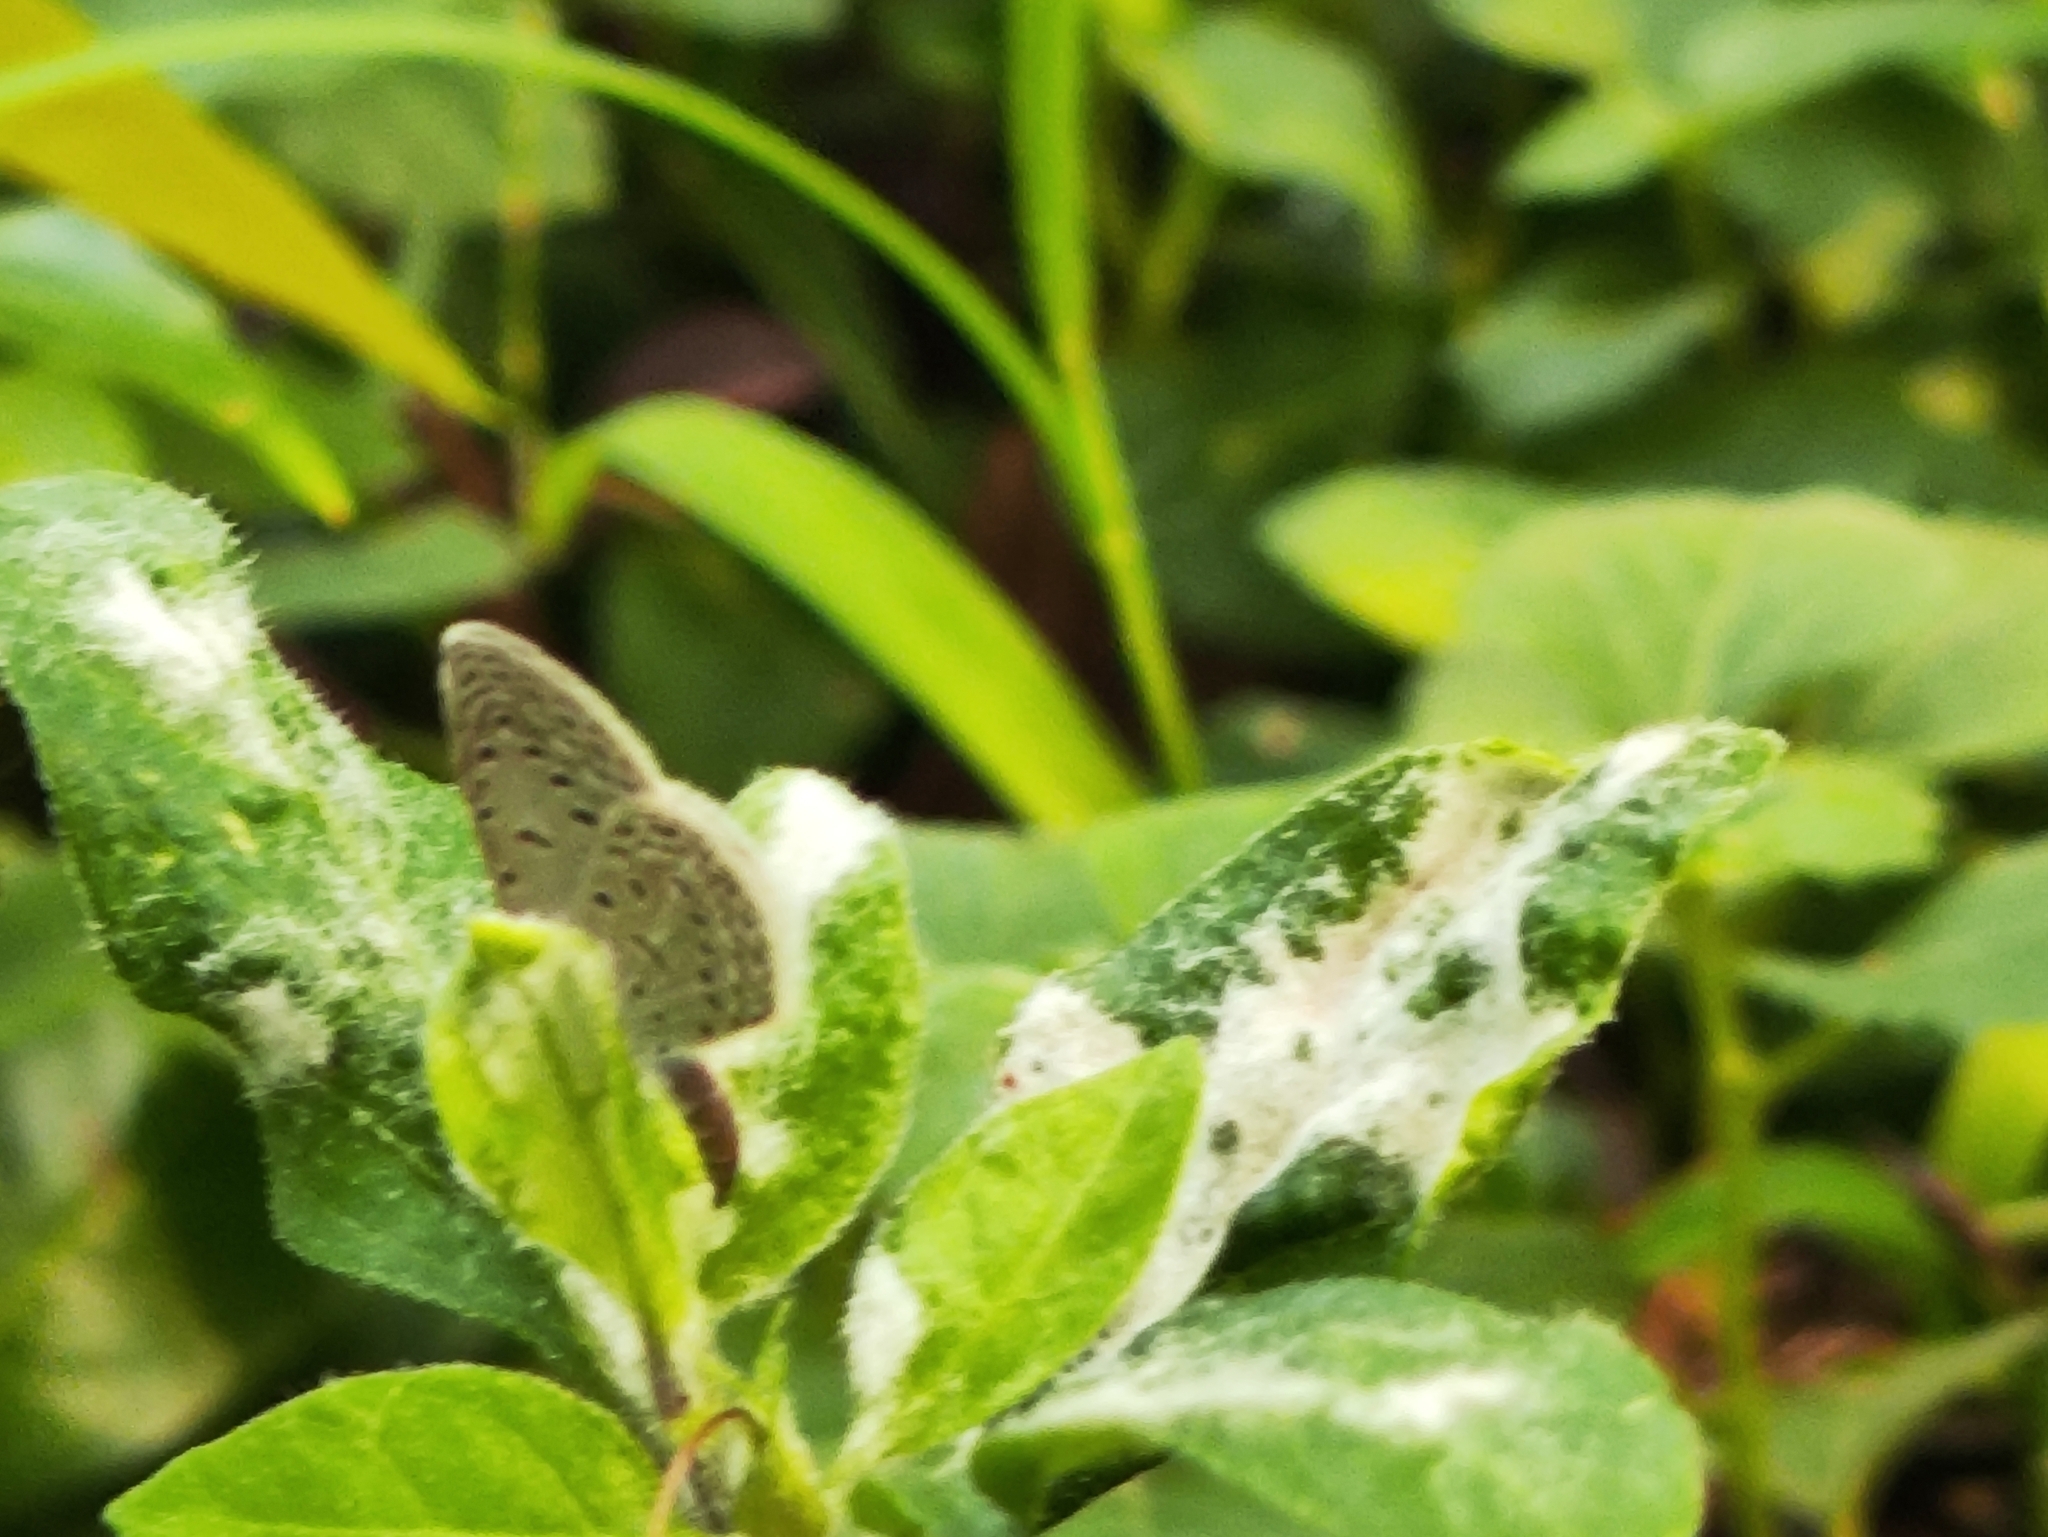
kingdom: Animalia
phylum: Arthropoda
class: Insecta
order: Lepidoptera
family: Lycaenidae
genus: Zizula
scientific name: Zizula hylax
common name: Gaika blue
